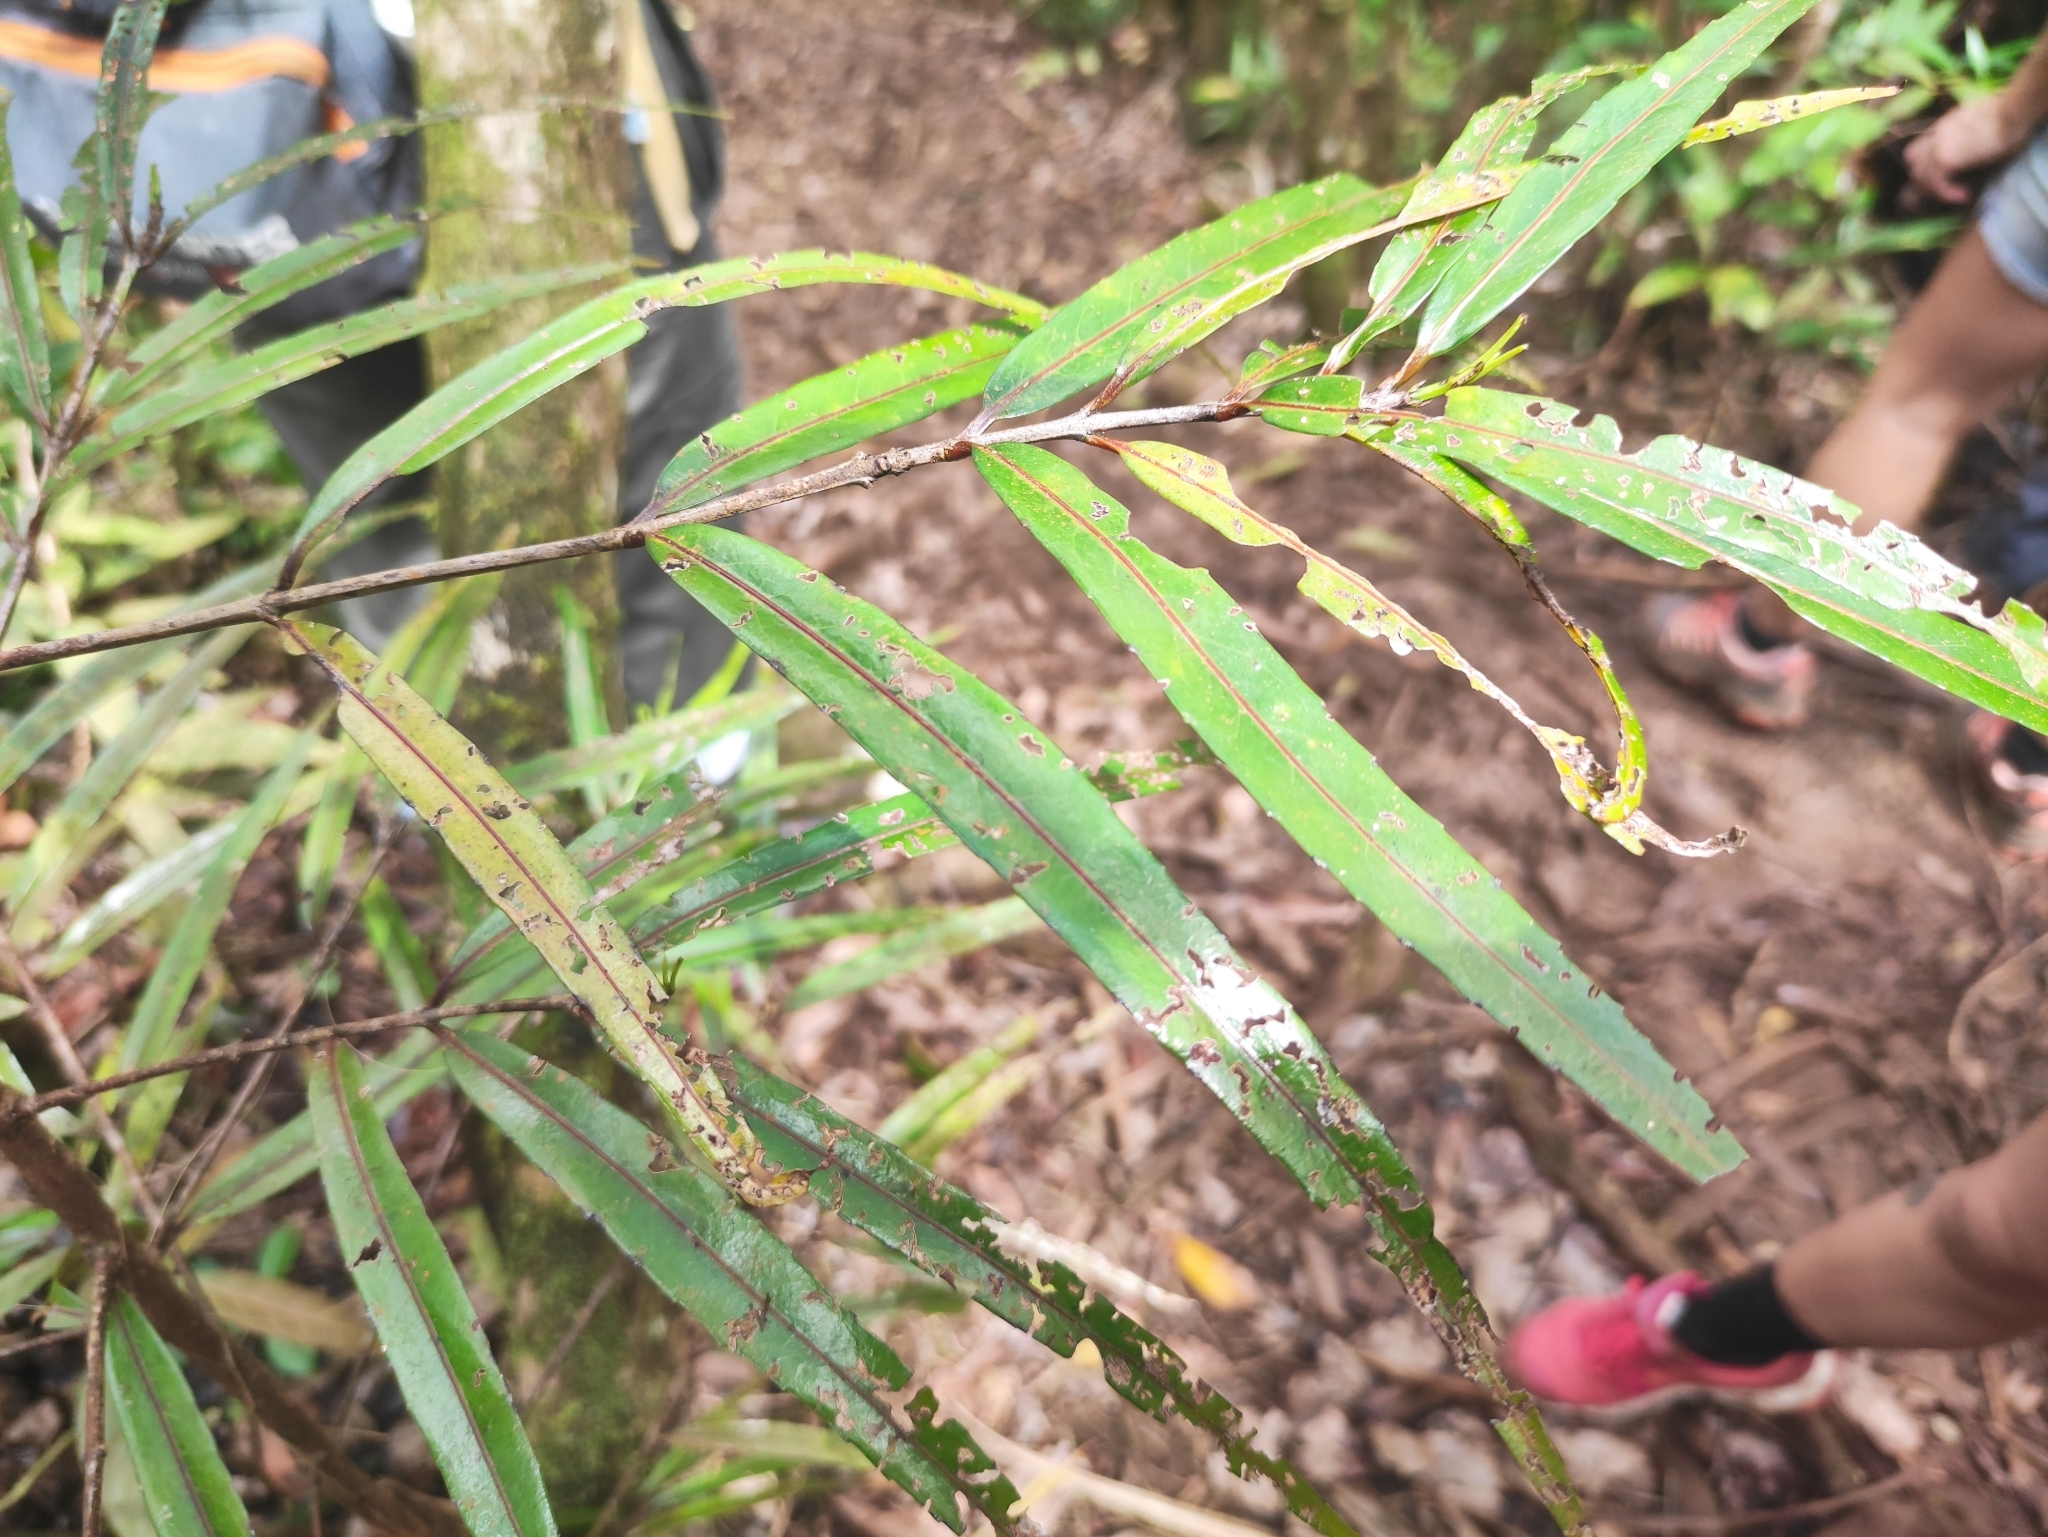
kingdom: Plantae
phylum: Tracheophyta
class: Magnoliopsida
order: Celastrales
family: Celastraceae
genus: Elaeodendron
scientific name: Elaeodendron orientale
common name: False olive
